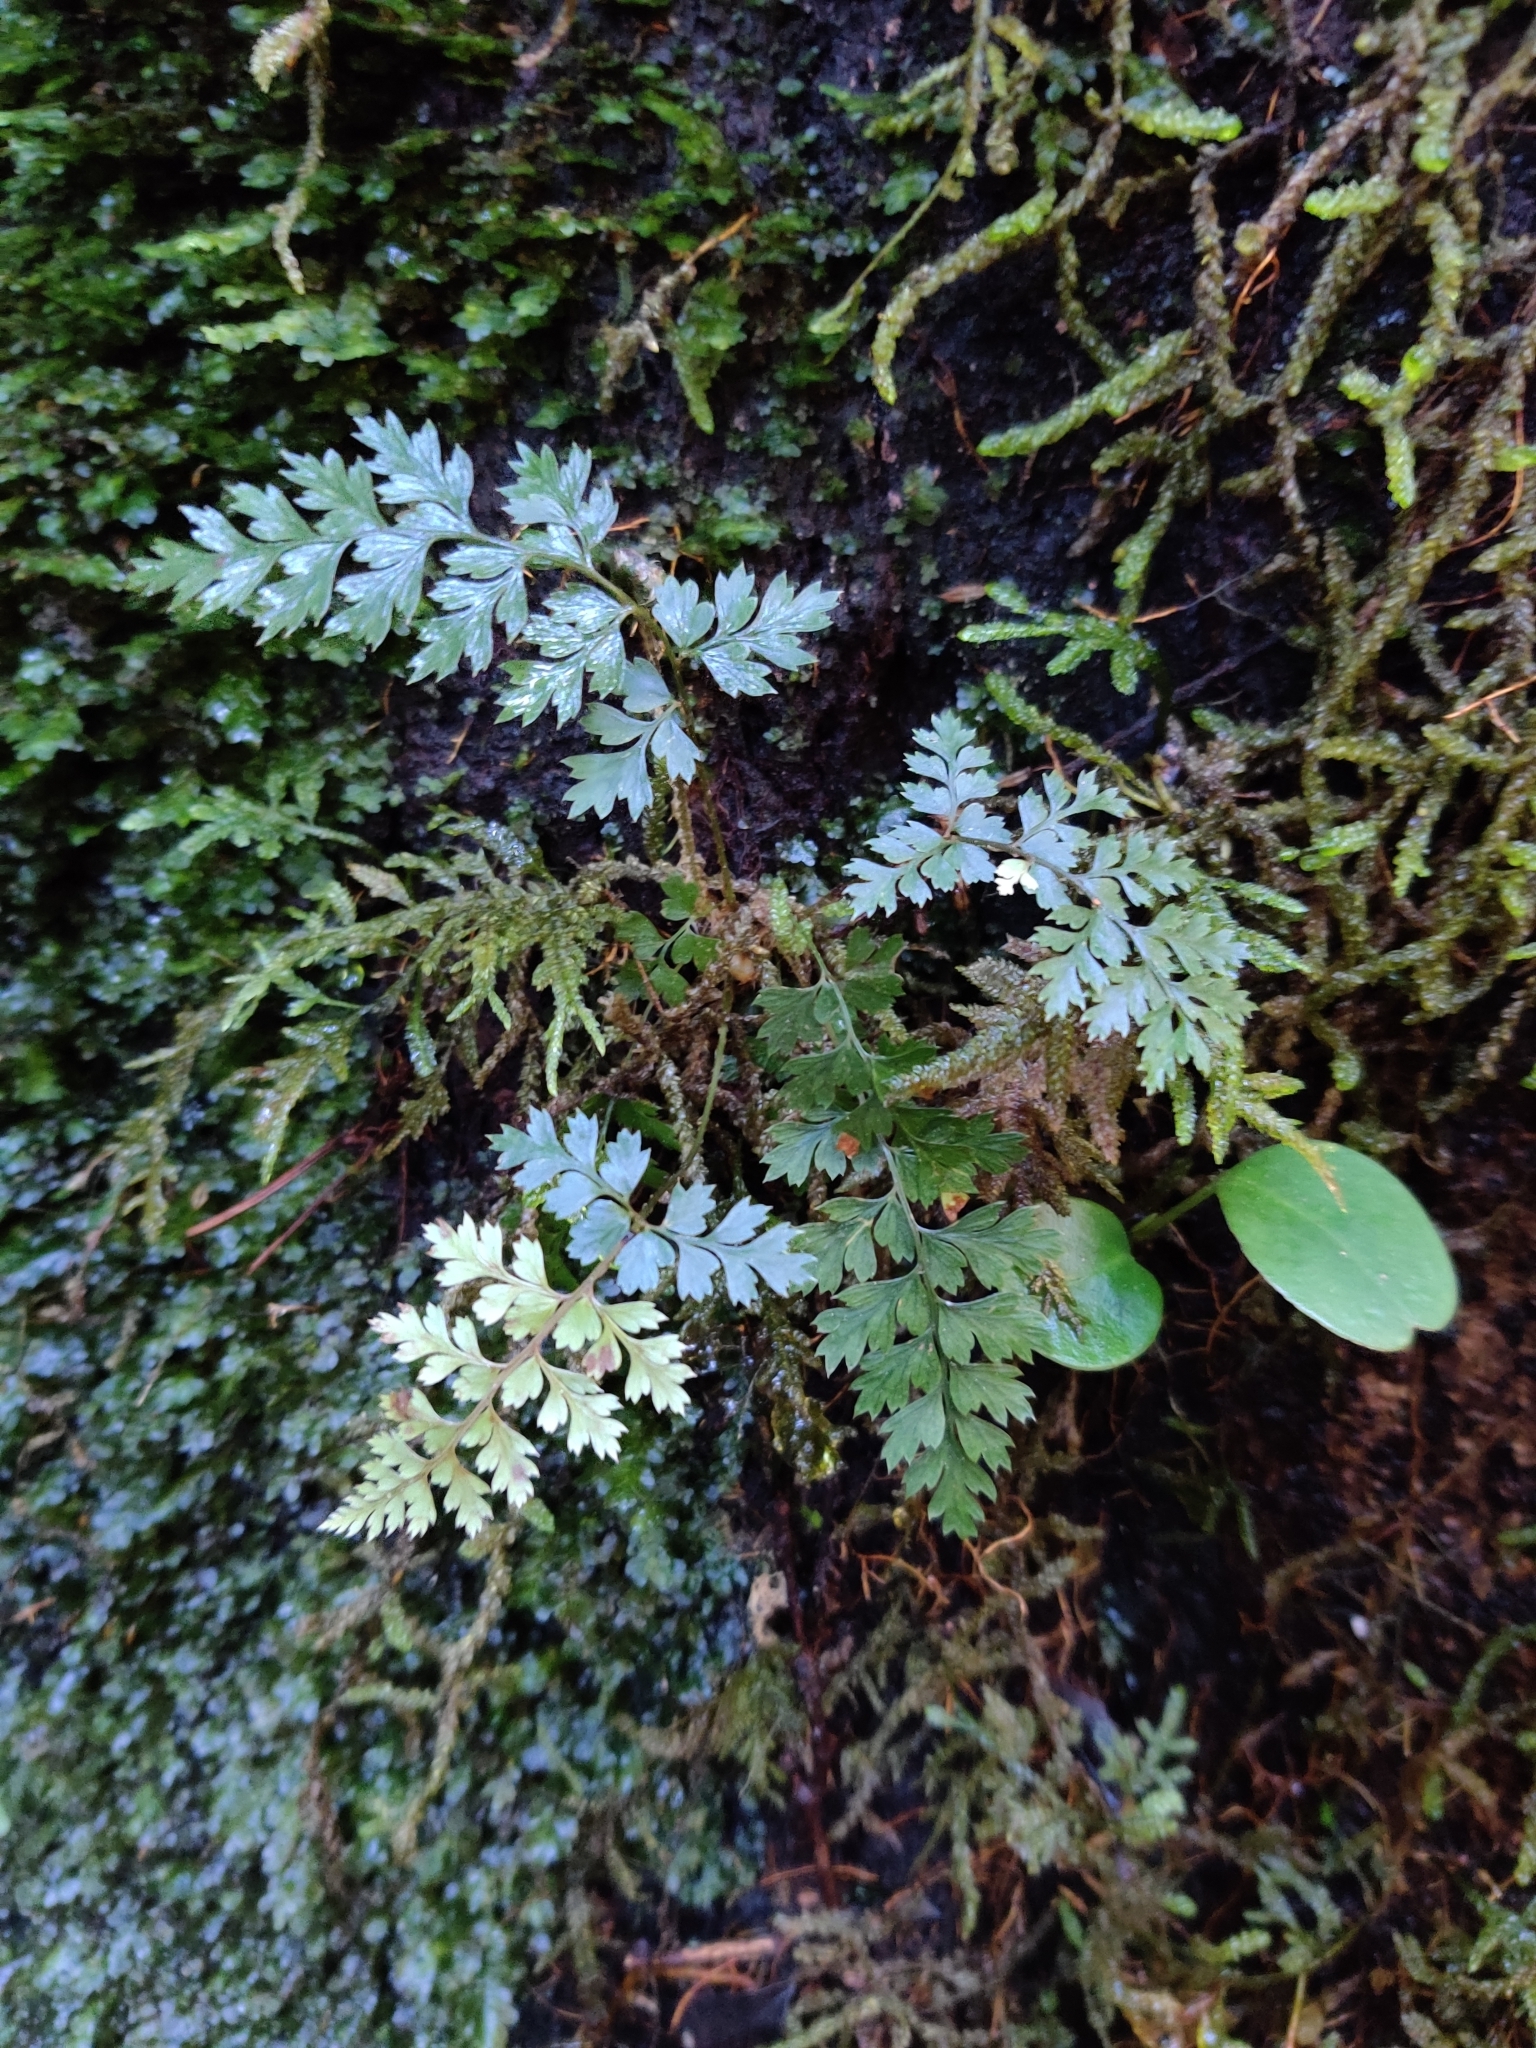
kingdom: Plantae
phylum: Tracheophyta
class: Polypodiopsida
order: Polypodiales
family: Dryopteridaceae
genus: Polystichum
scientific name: Polystichum vestitum
